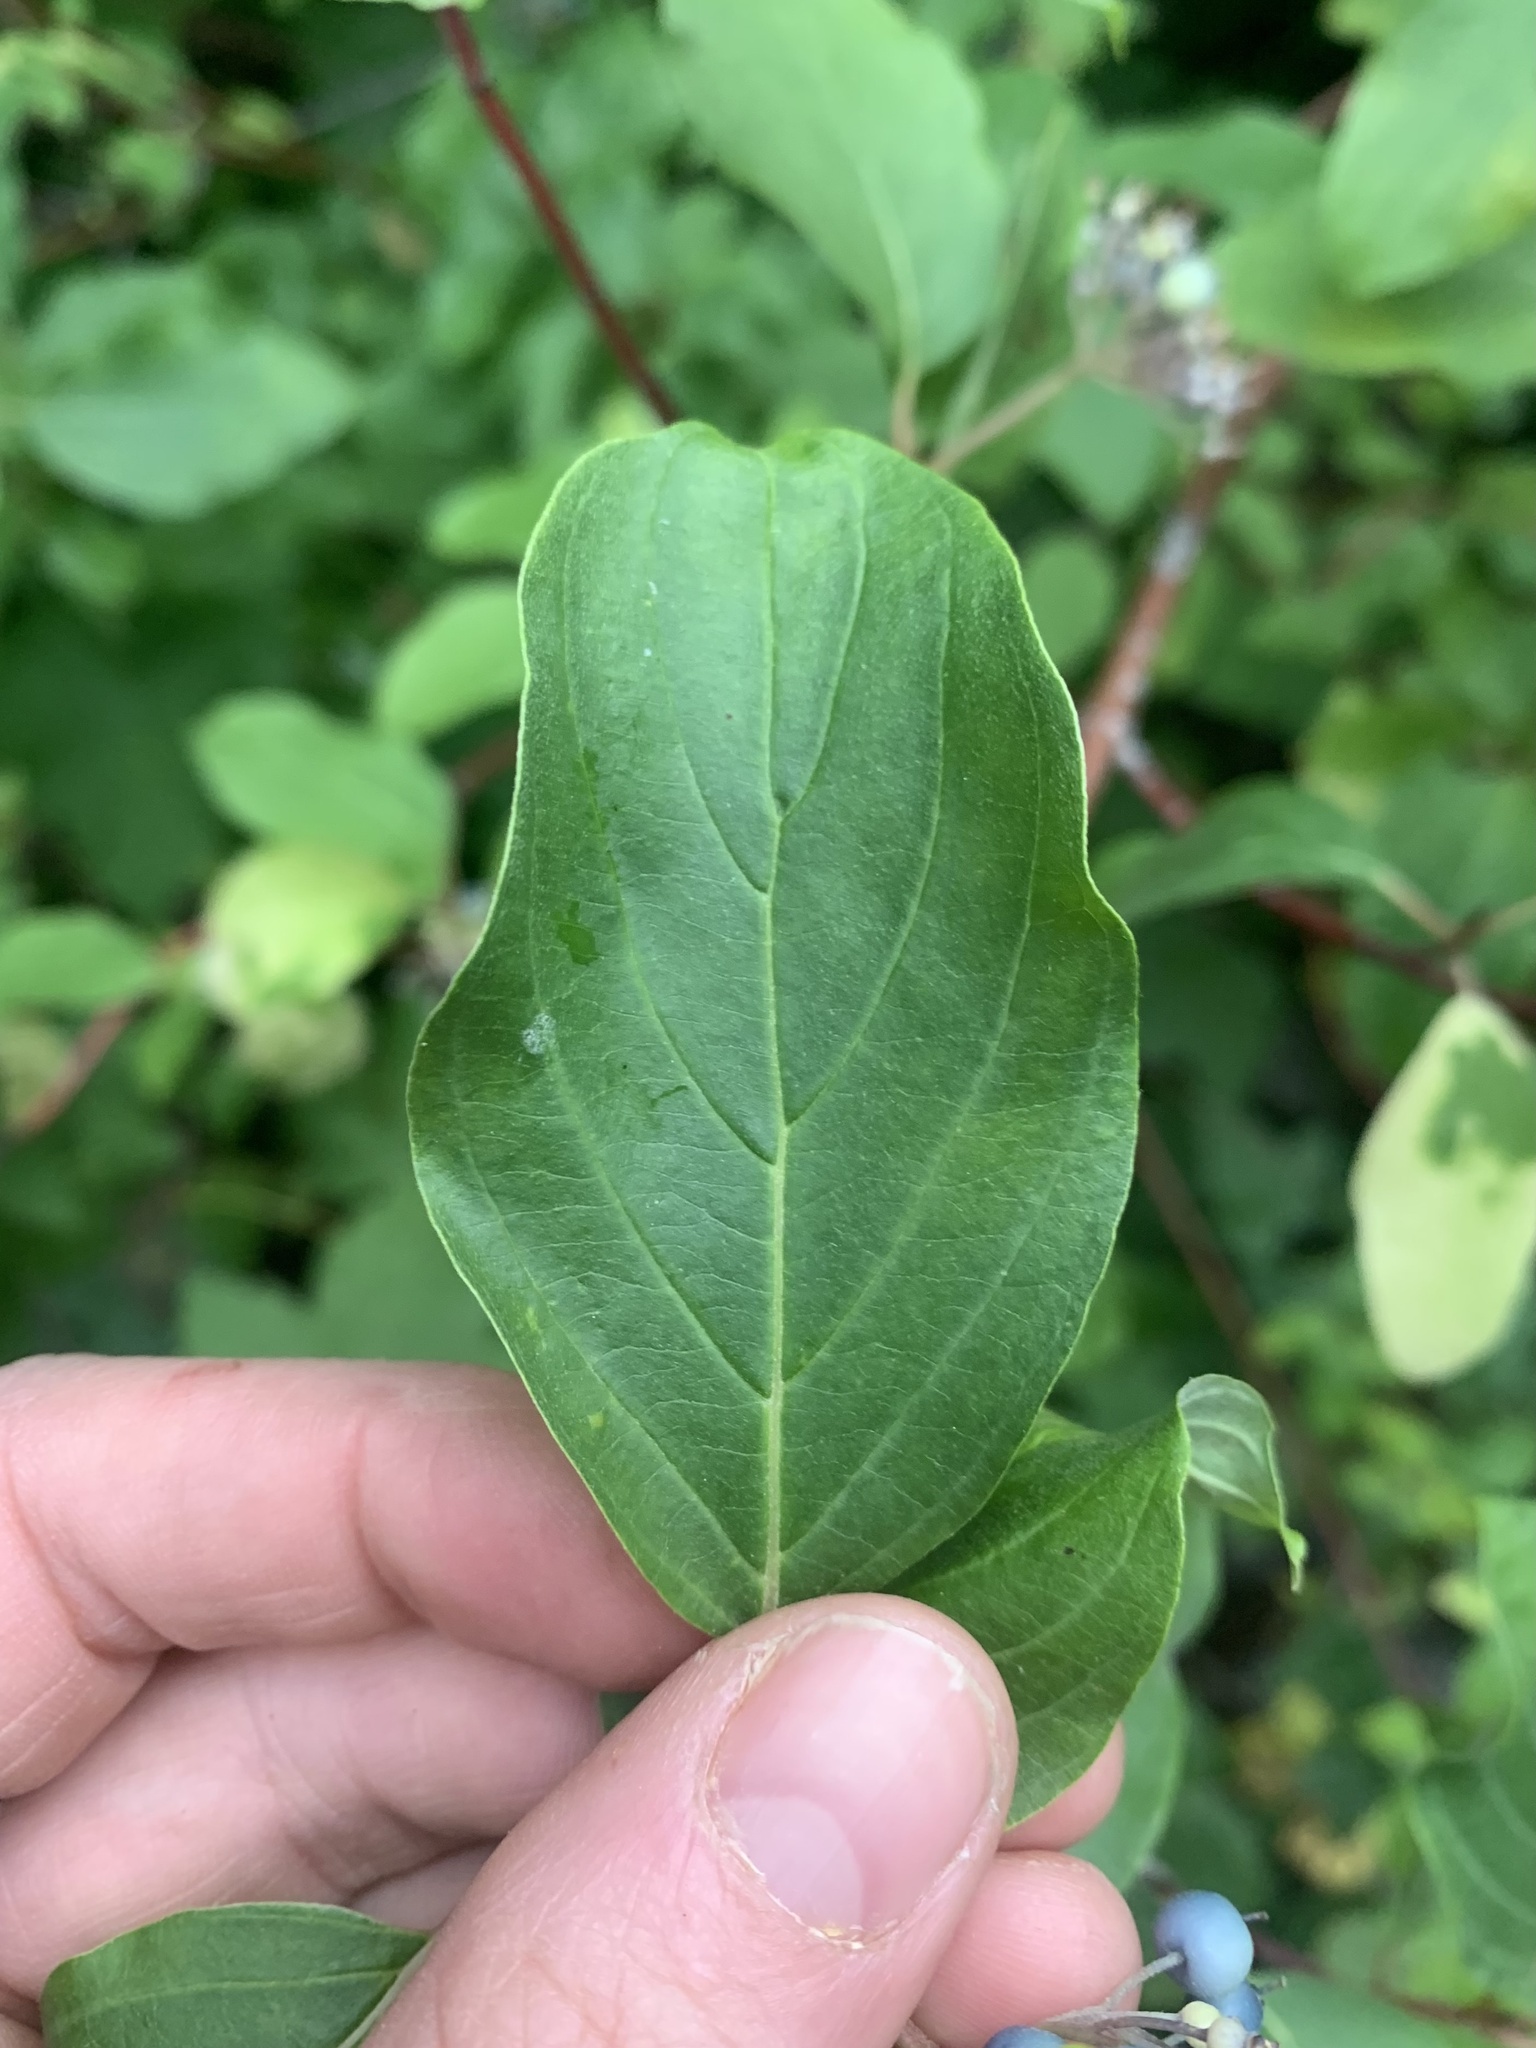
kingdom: Plantae
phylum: Tracheophyta
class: Magnoliopsida
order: Cornales
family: Cornaceae
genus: Cornus
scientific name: Cornus sericea
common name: Red-osier dogwood
